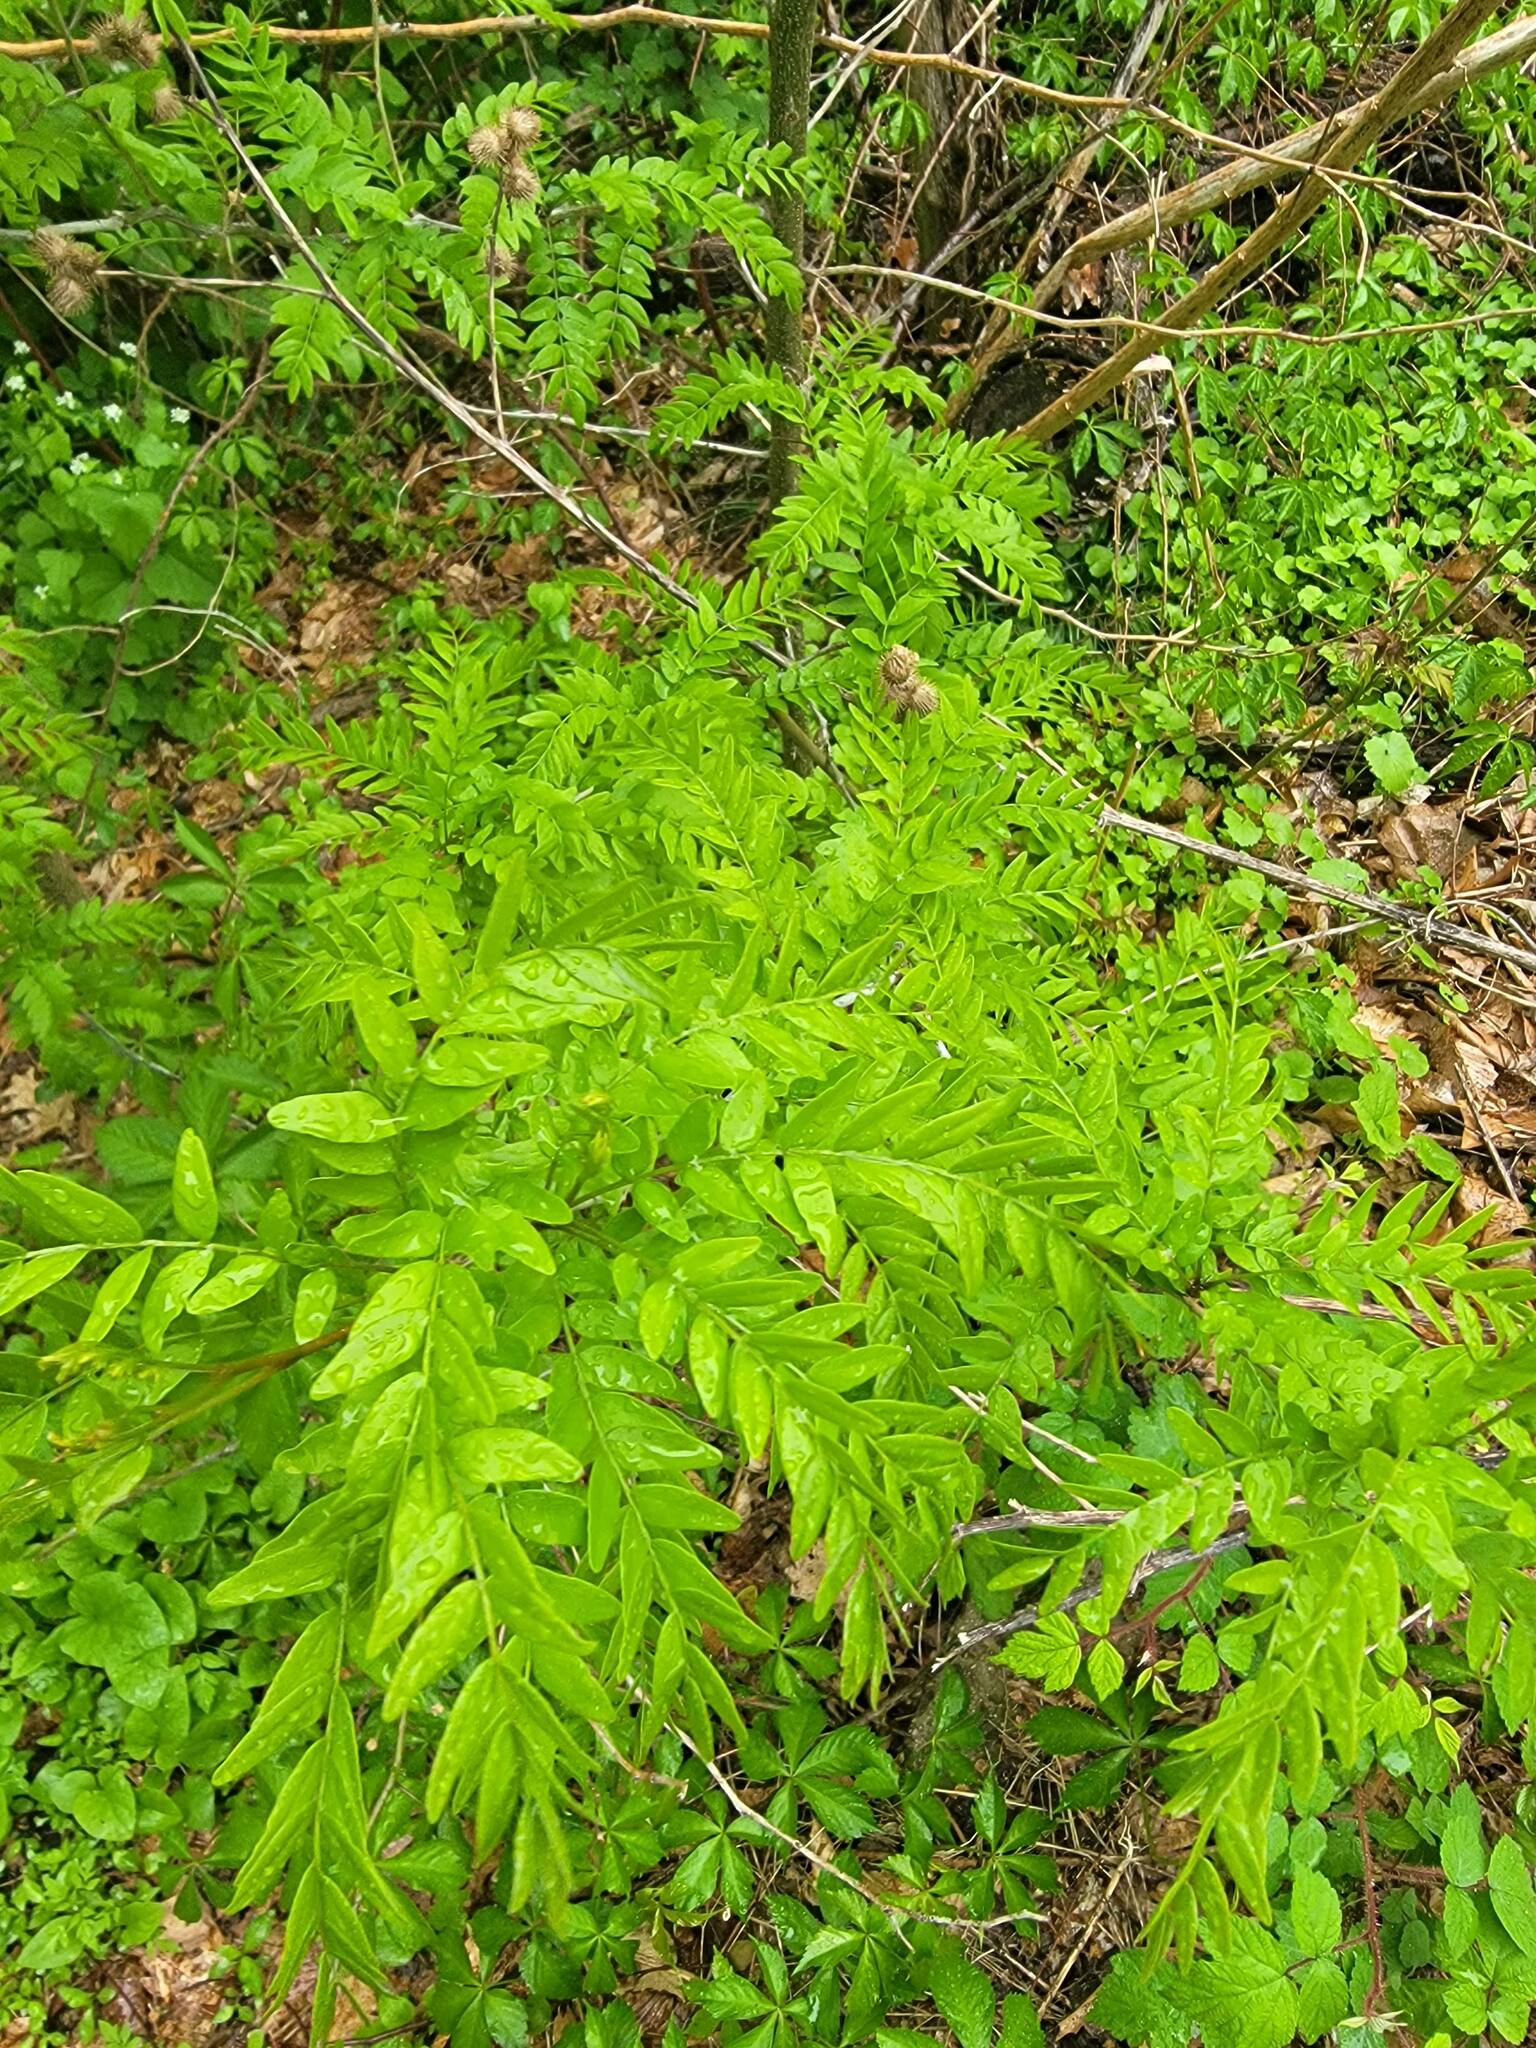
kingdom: Plantae
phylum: Tracheophyta
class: Magnoliopsida
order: Fabales
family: Fabaceae
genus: Gleditsia
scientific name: Gleditsia triacanthos
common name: Common honeylocust
